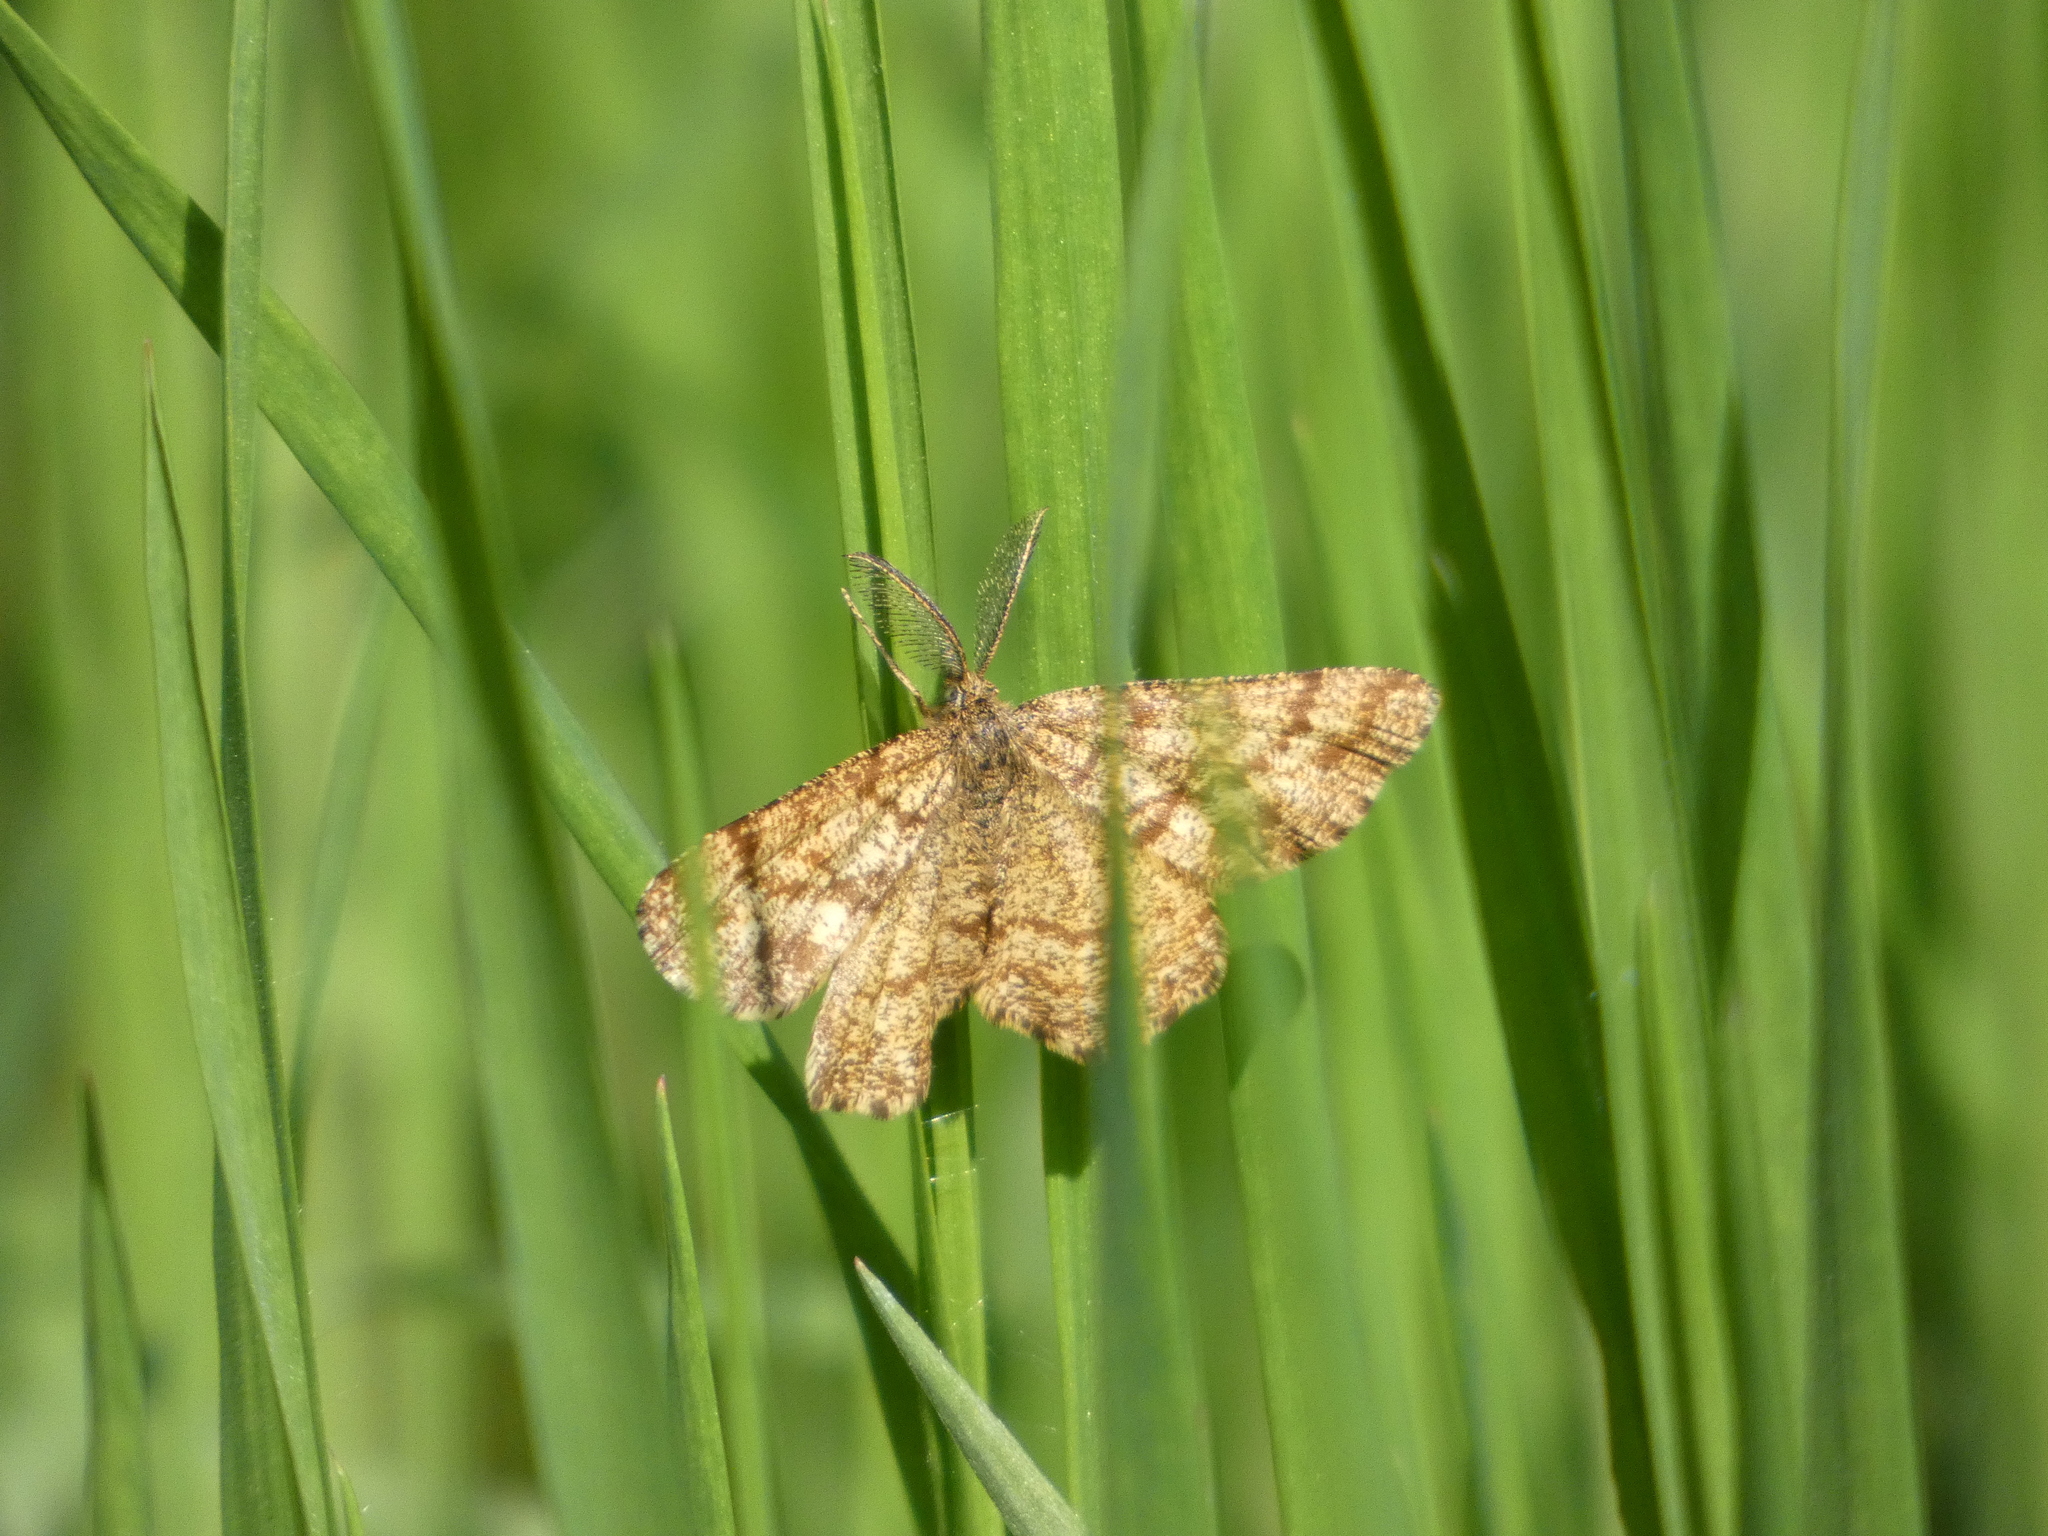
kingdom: Animalia
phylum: Arthropoda
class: Insecta
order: Lepidoptera
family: Geometridae
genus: Ematurga
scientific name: Ematurga atomaria
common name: Common heath
